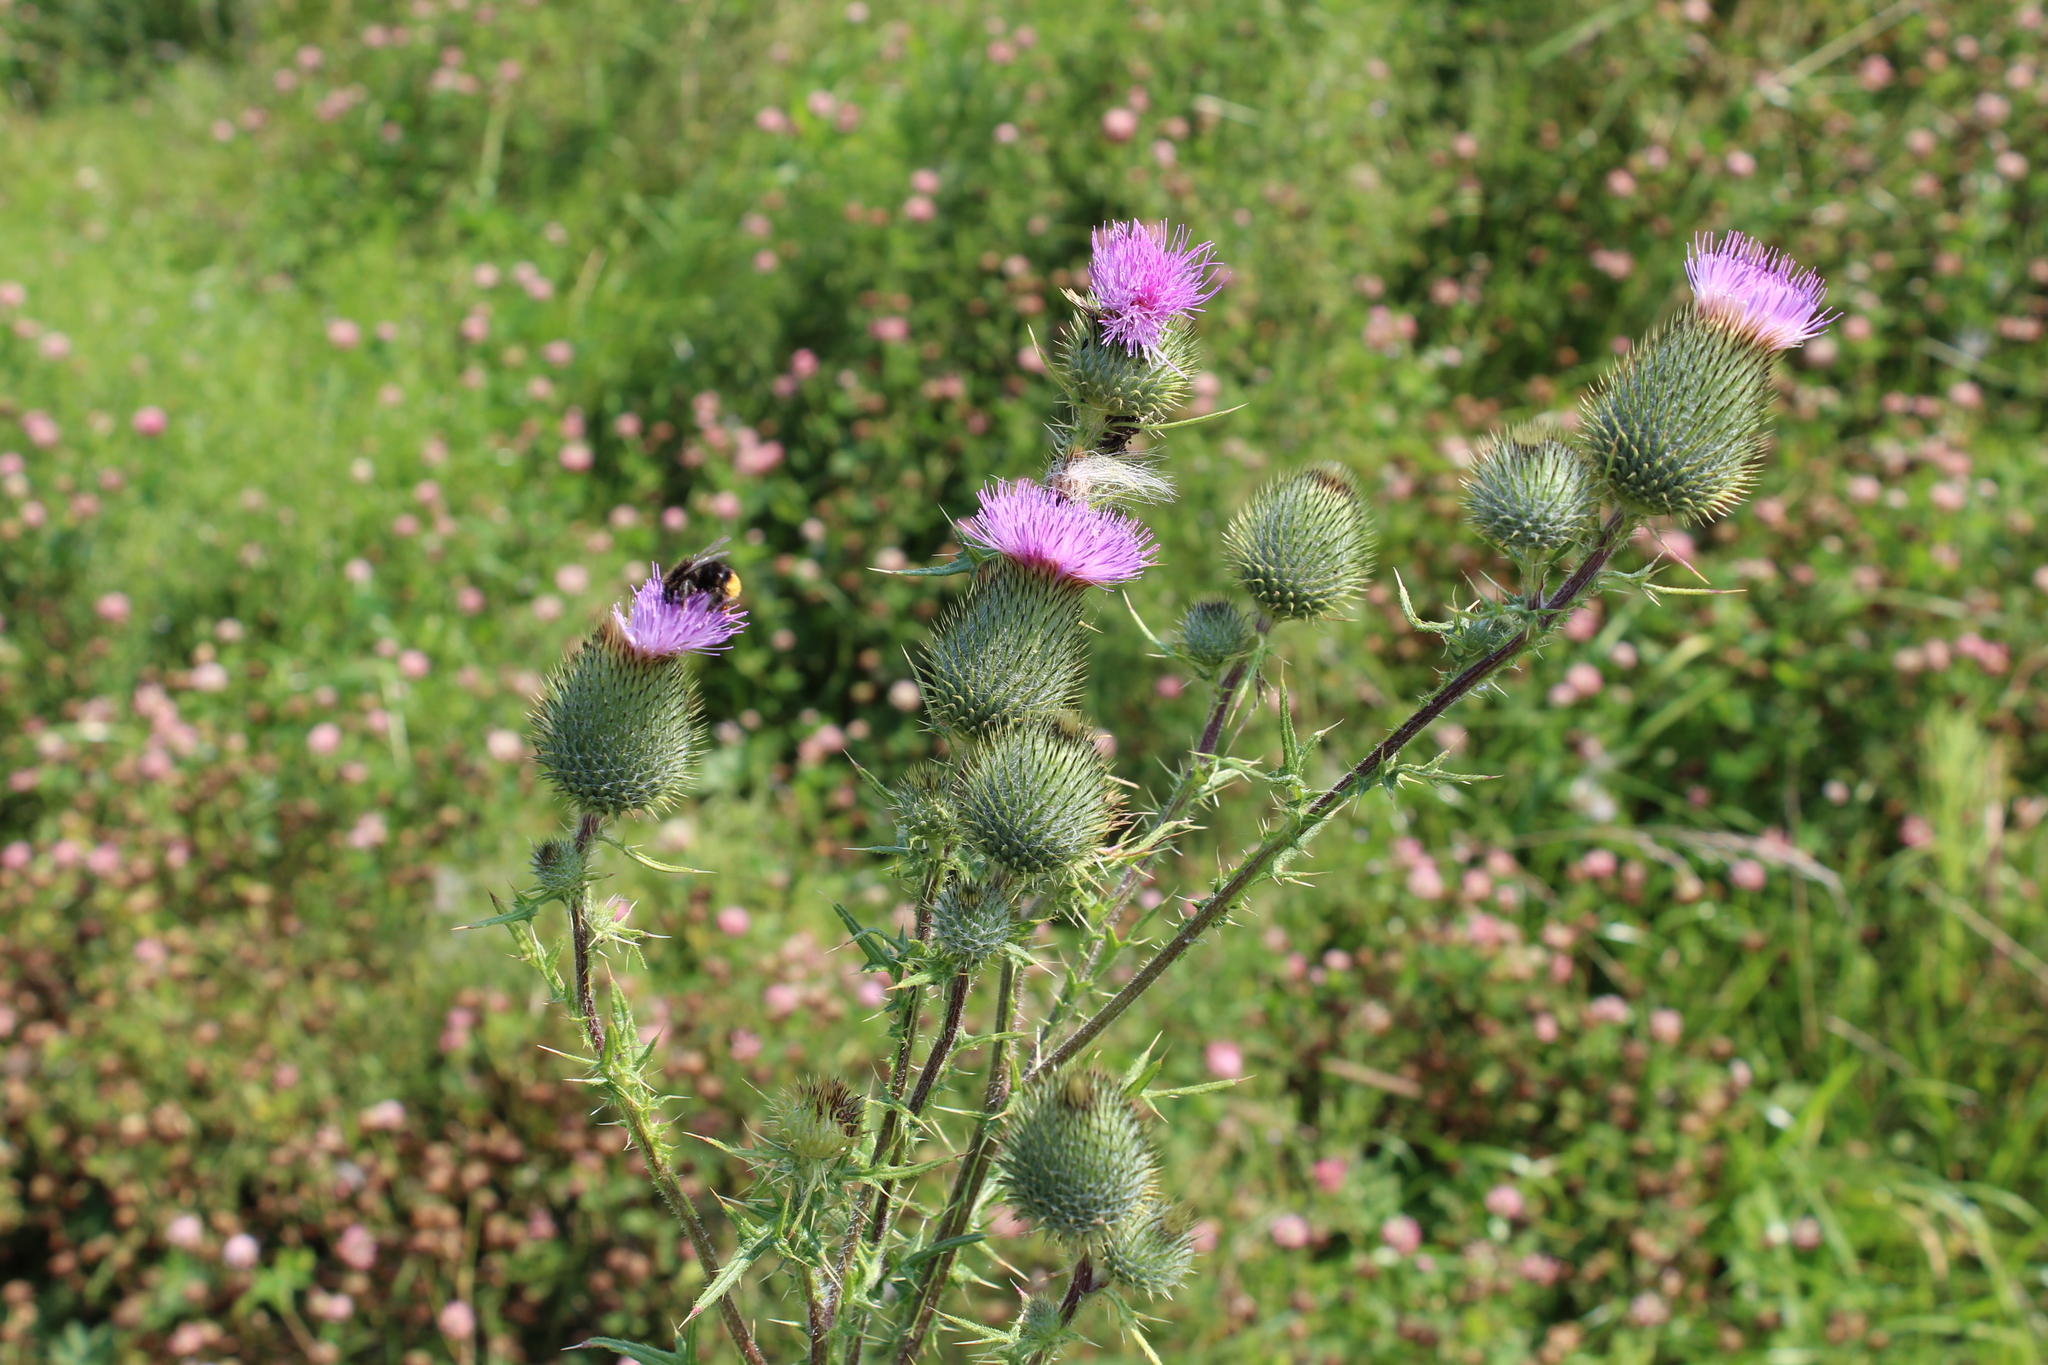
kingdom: Plantae
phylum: Tracheophyta
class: Magnoliopsida
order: Asterales
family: Asteraceae
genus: Cirsium
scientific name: Cirsium vulgare
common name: Bull thistle
